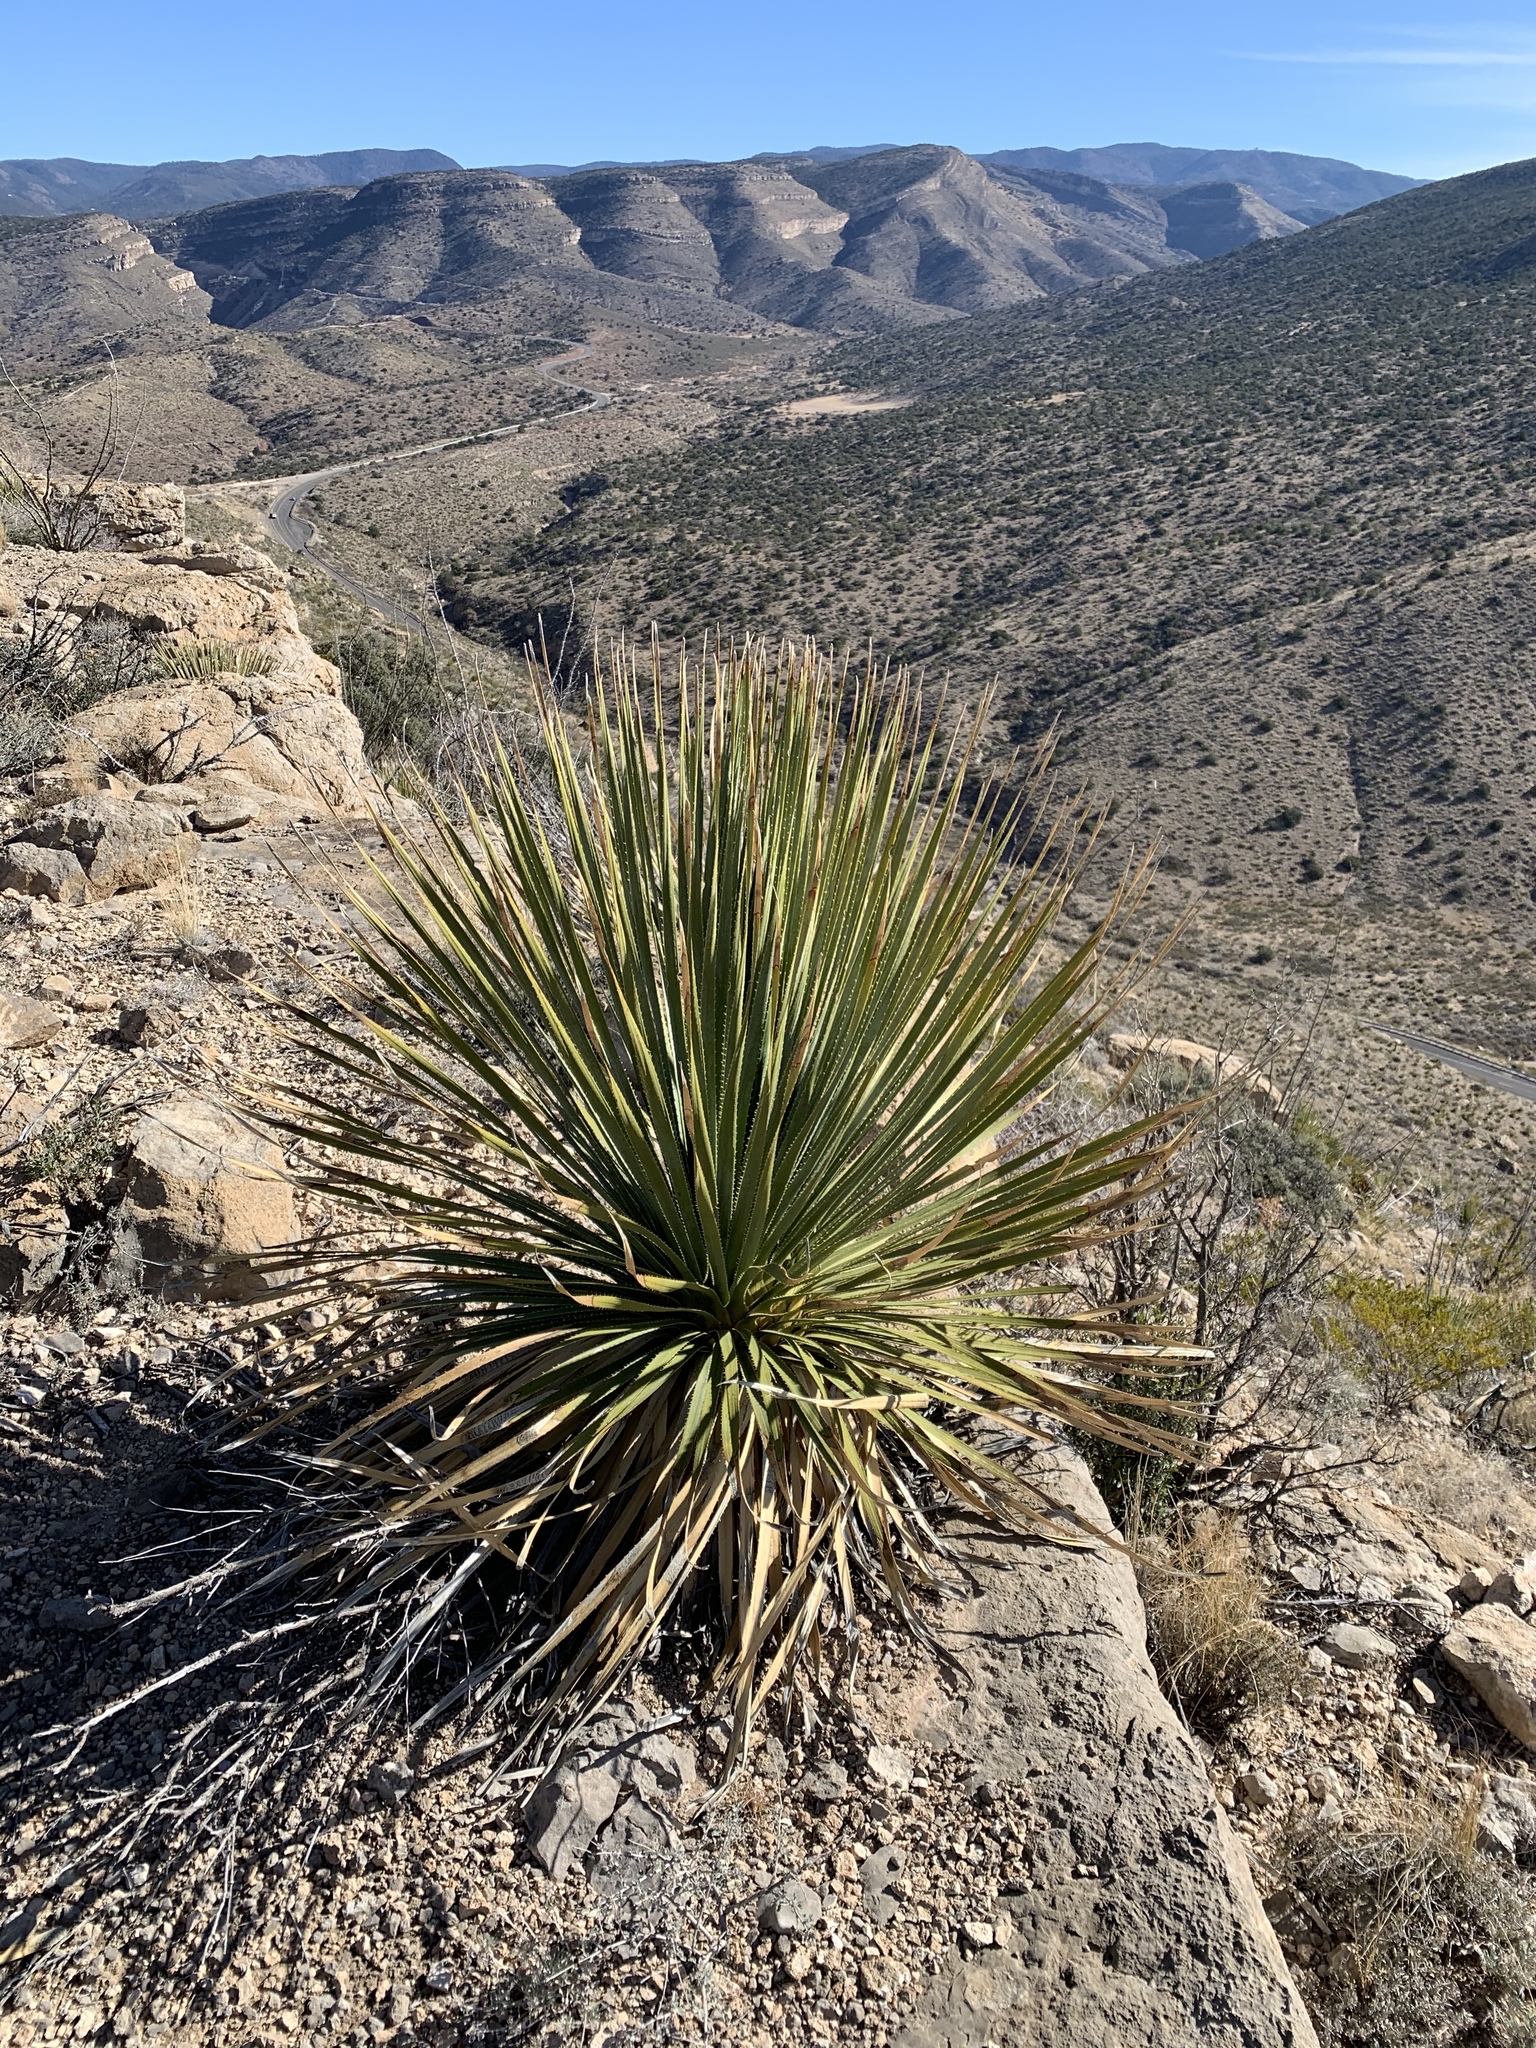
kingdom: Plantae
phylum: Tracheophyta
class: Liliopsida
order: Asparagales
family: Asparagaceae
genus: Dasylirion
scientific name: Dasylirion wheeleri
